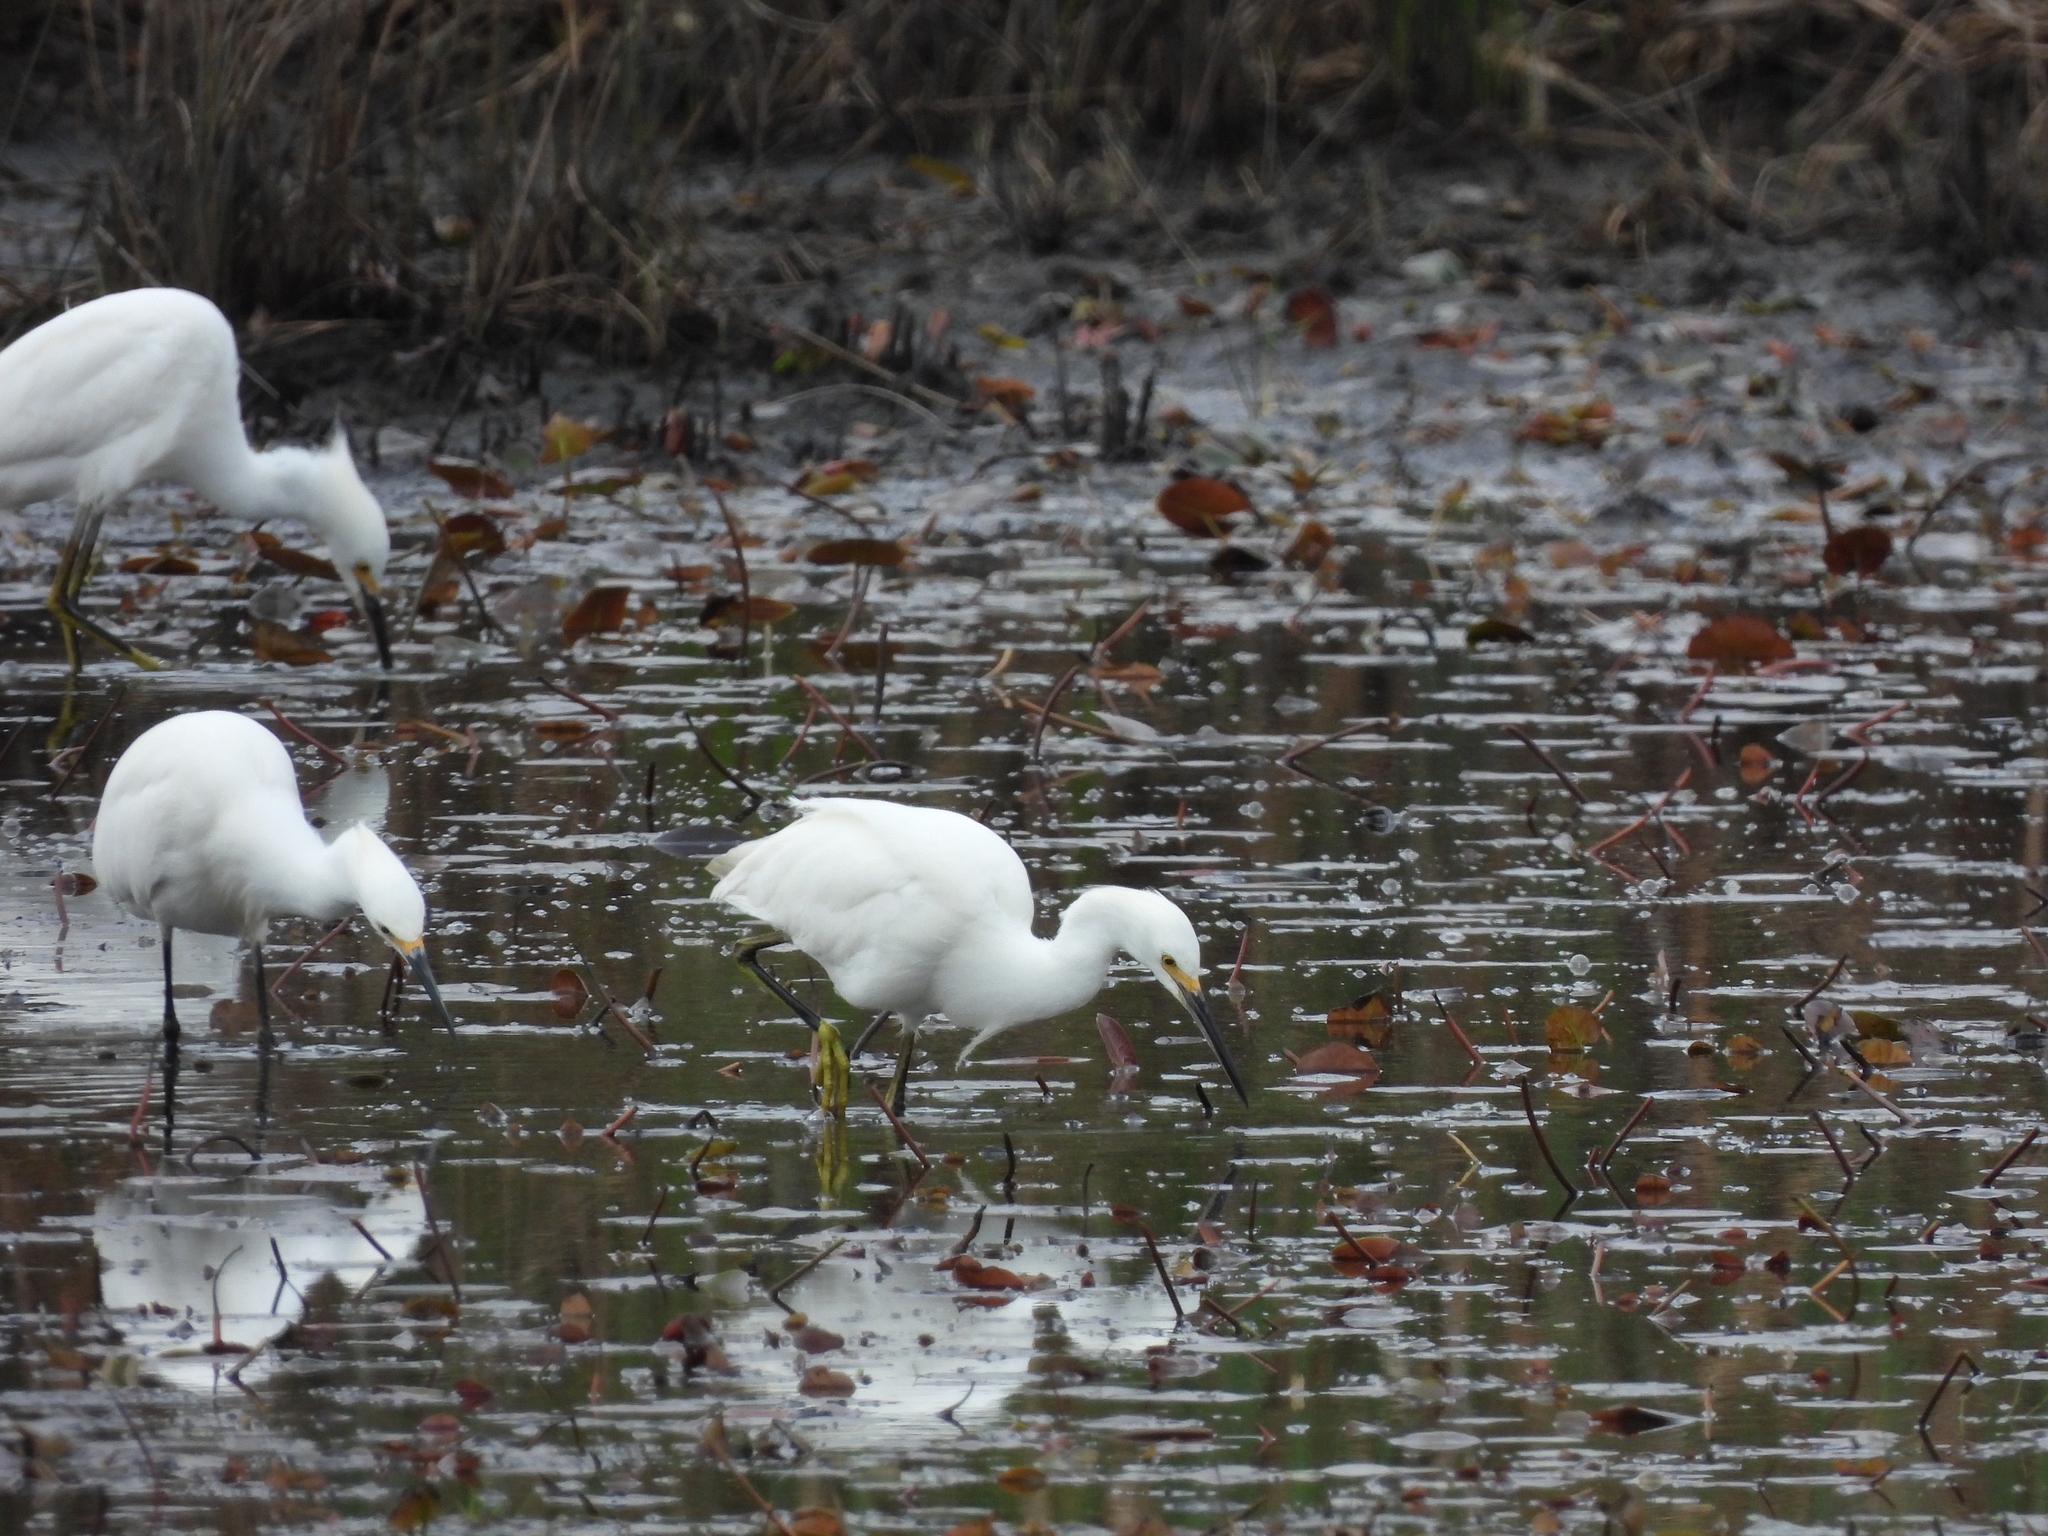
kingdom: Animalia
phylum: Chordata
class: Aves
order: Pelecaniformes
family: Ardeidae
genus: Egretta
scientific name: Egretta thula
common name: Snowy egret
